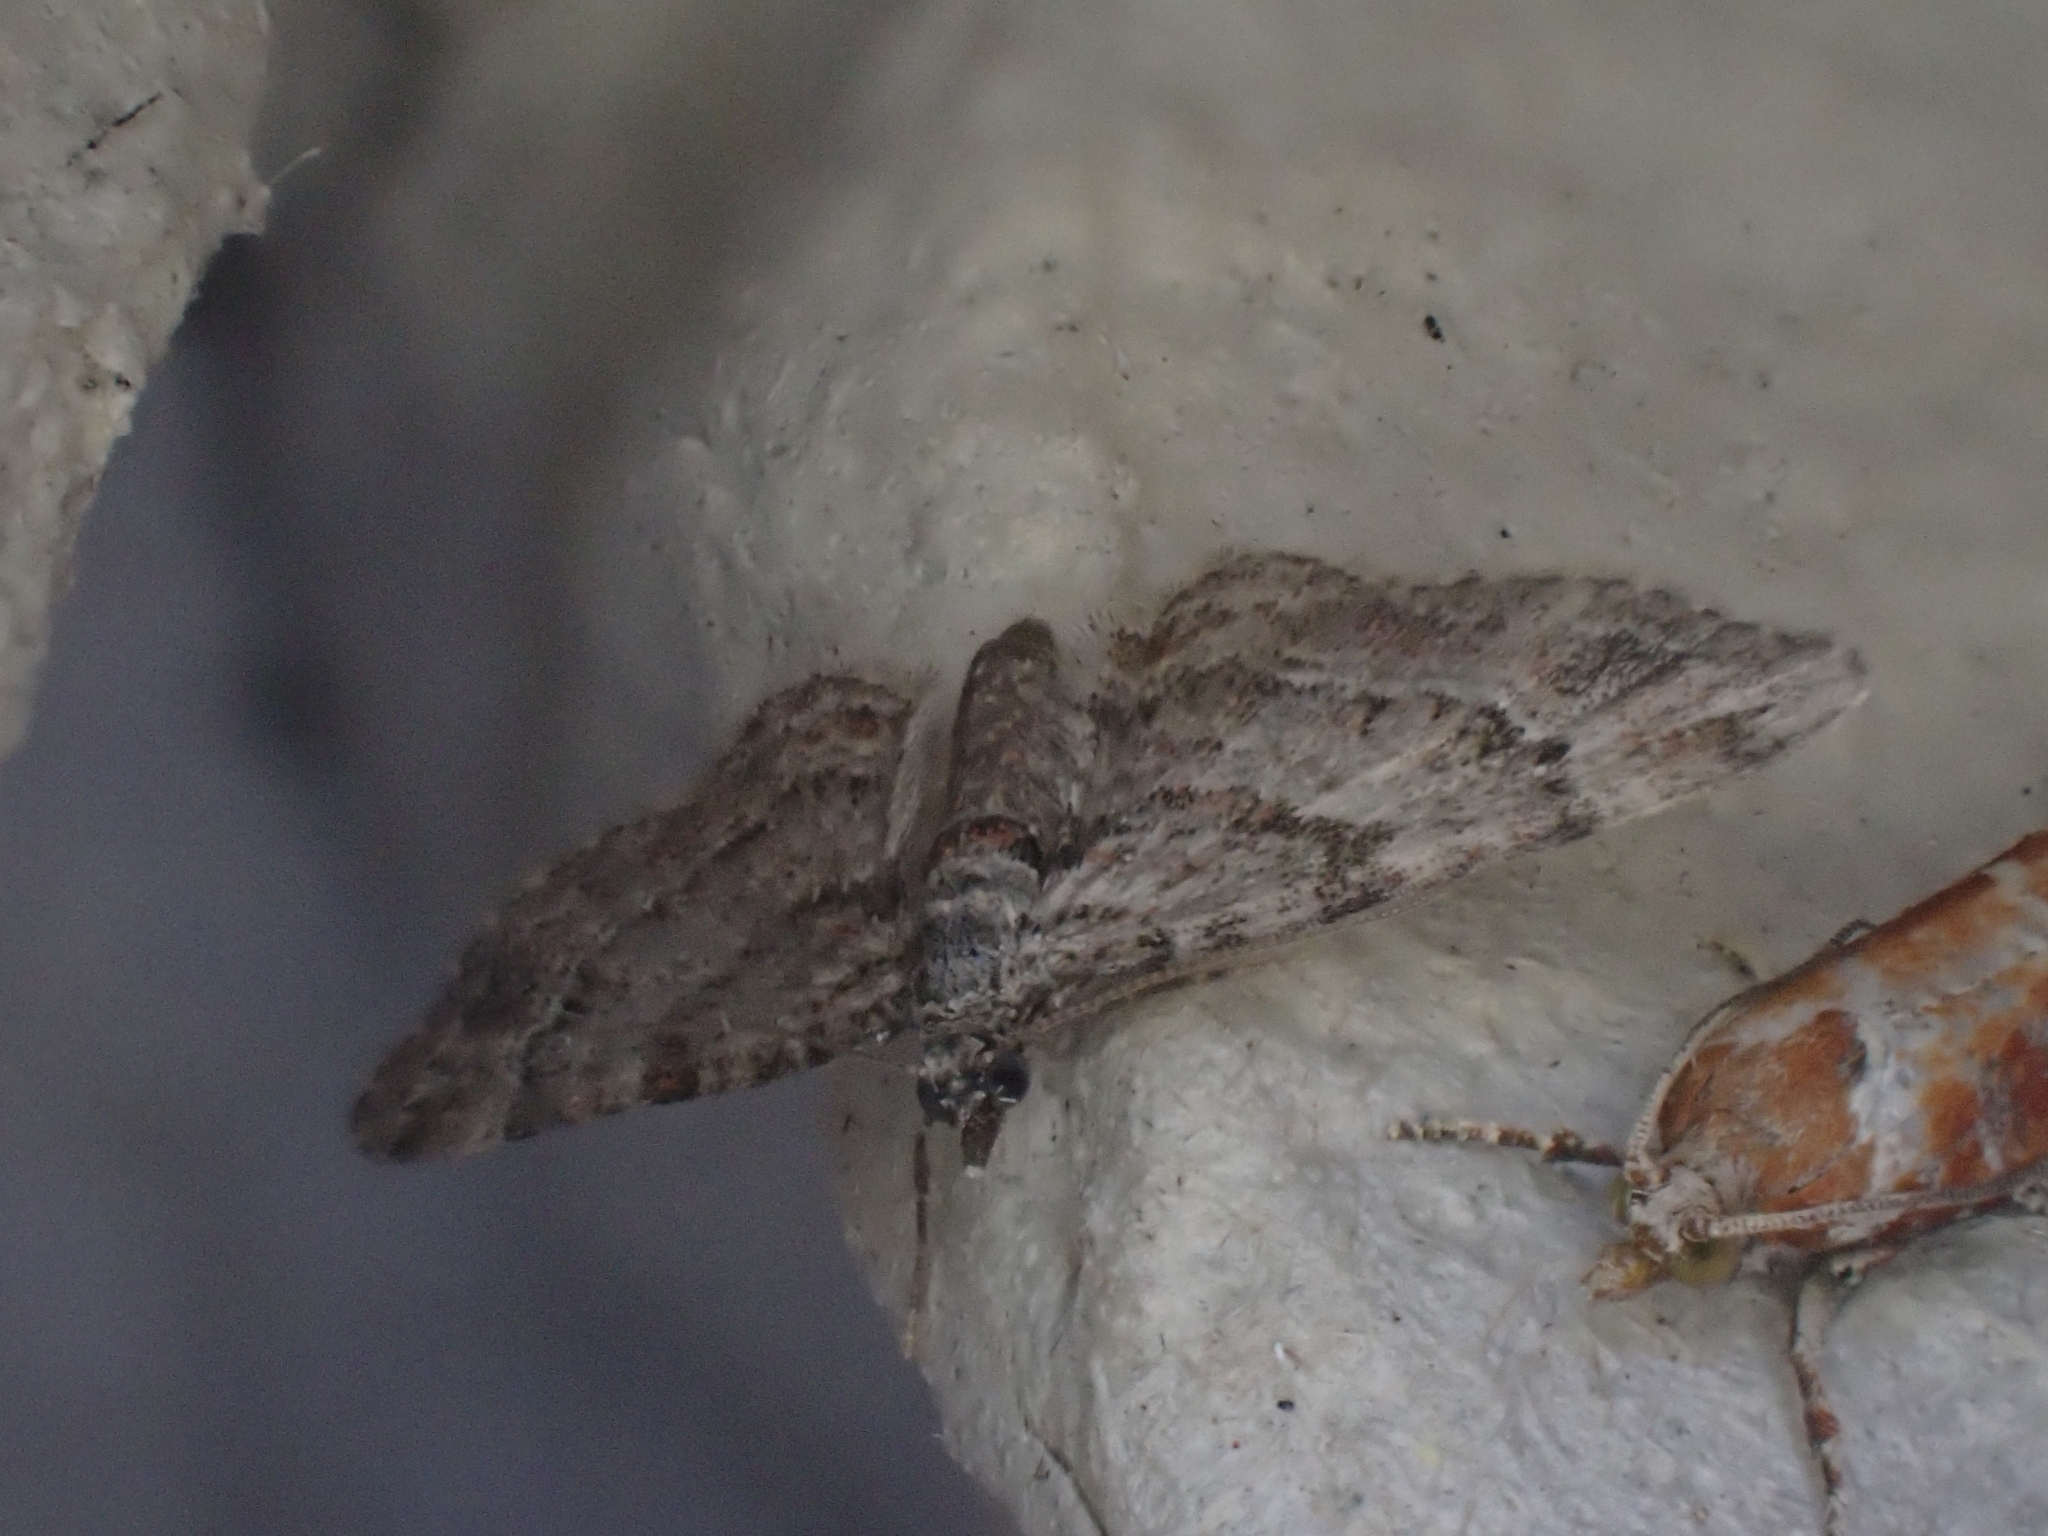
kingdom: Animalia
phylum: Arthropoda
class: Insecta
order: Lepidoptera
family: Geometridae
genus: Gymnoscelis
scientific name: Gymnoscelis rufifasciata
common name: Double-striped pug
